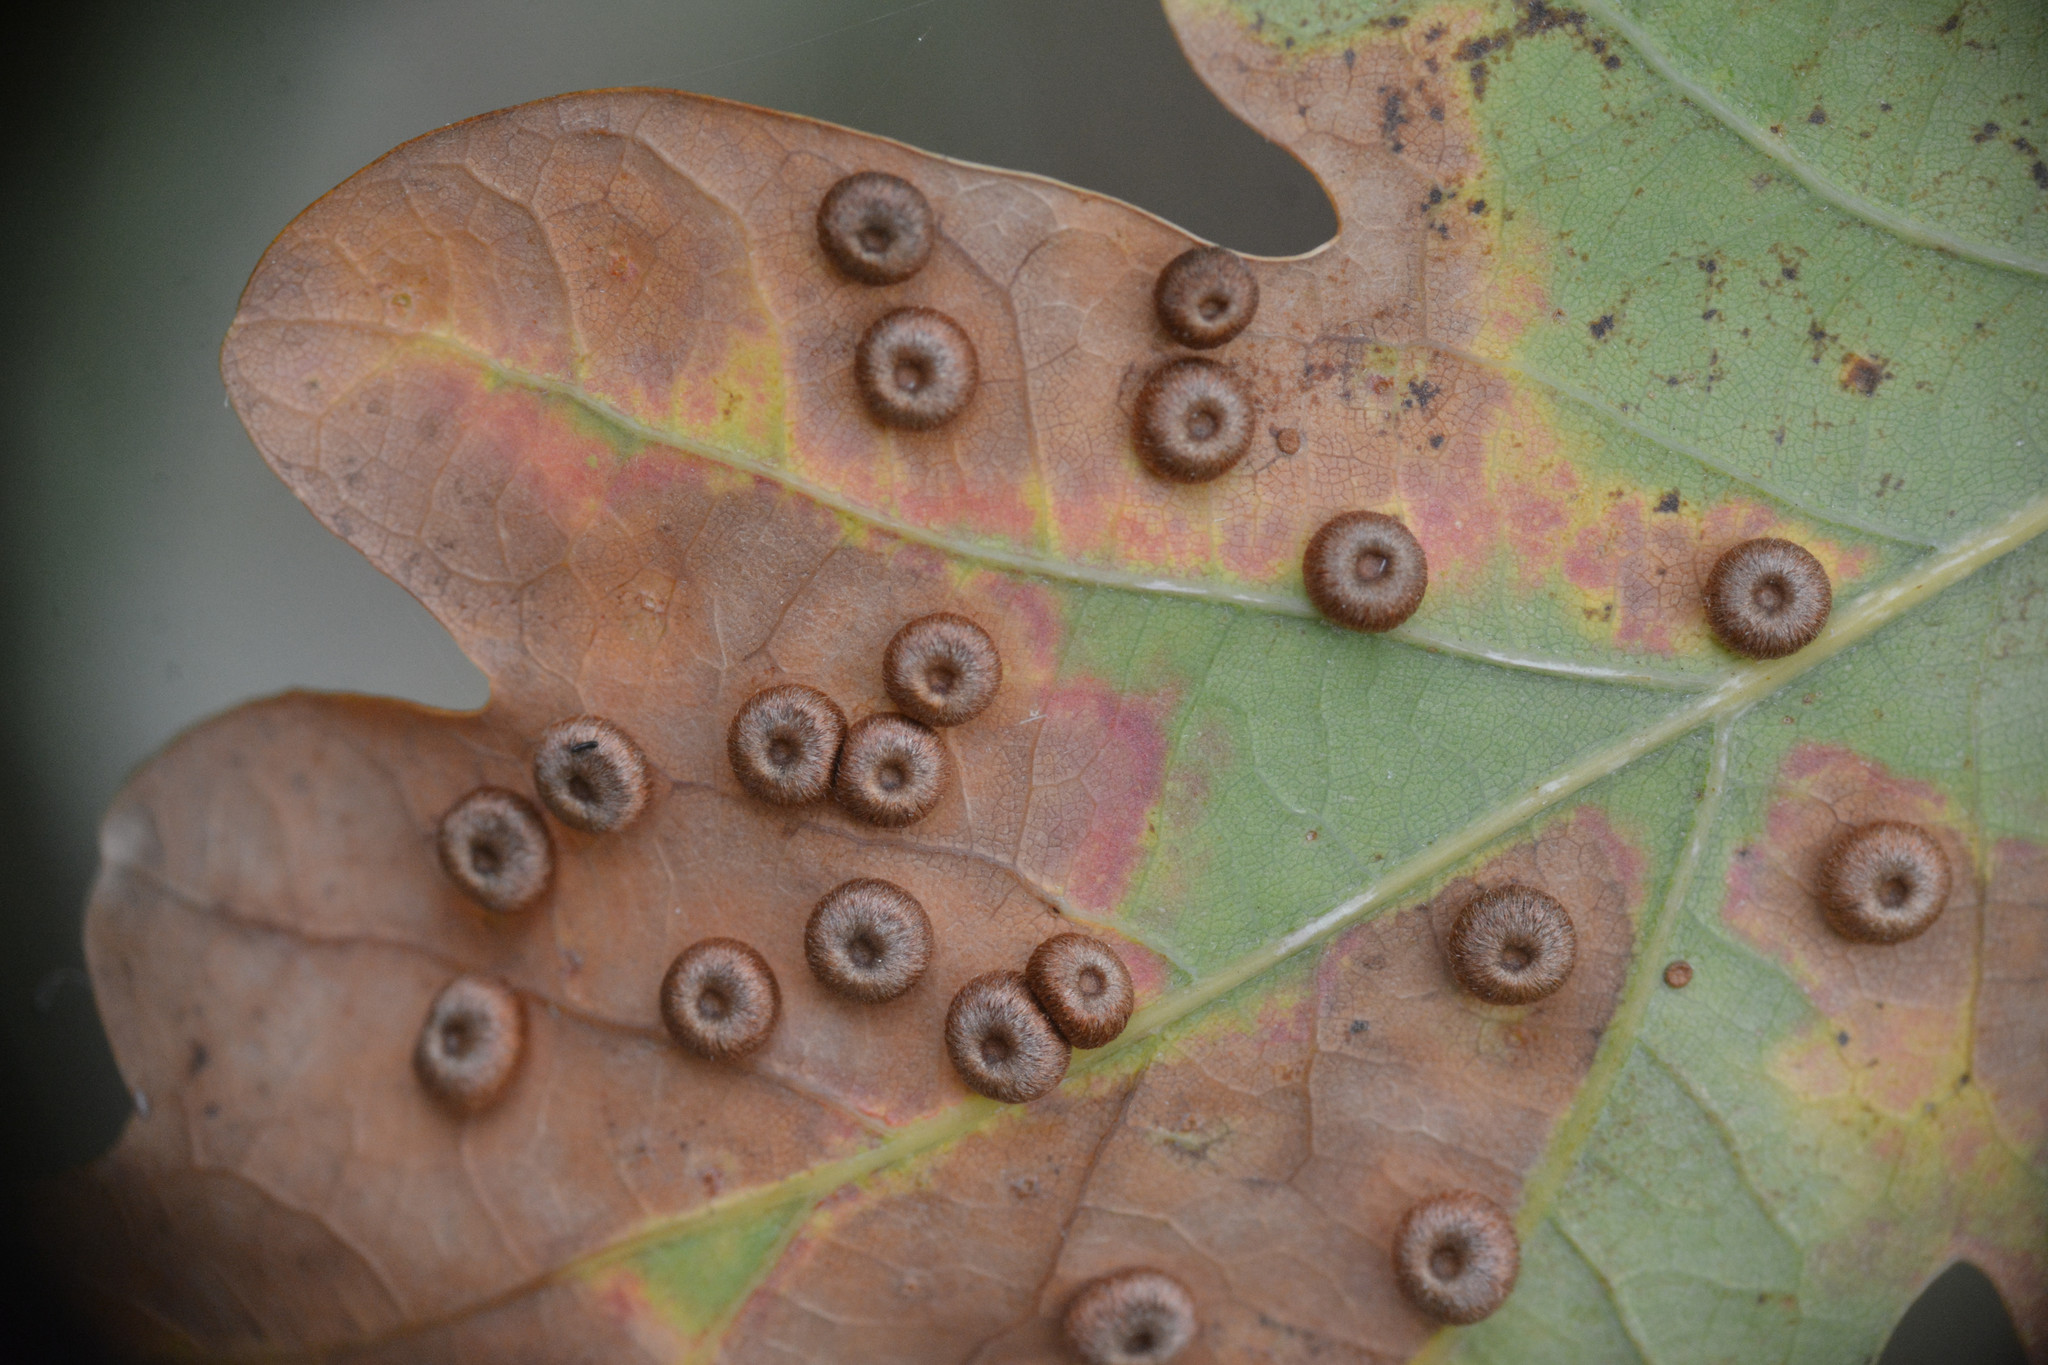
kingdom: Animalia
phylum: Arthropoda
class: Insecta
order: Hymenoptera
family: Cynipidae
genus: Neuroterus
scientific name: Neuroterus numismalis
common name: Silk-button spangle gall
